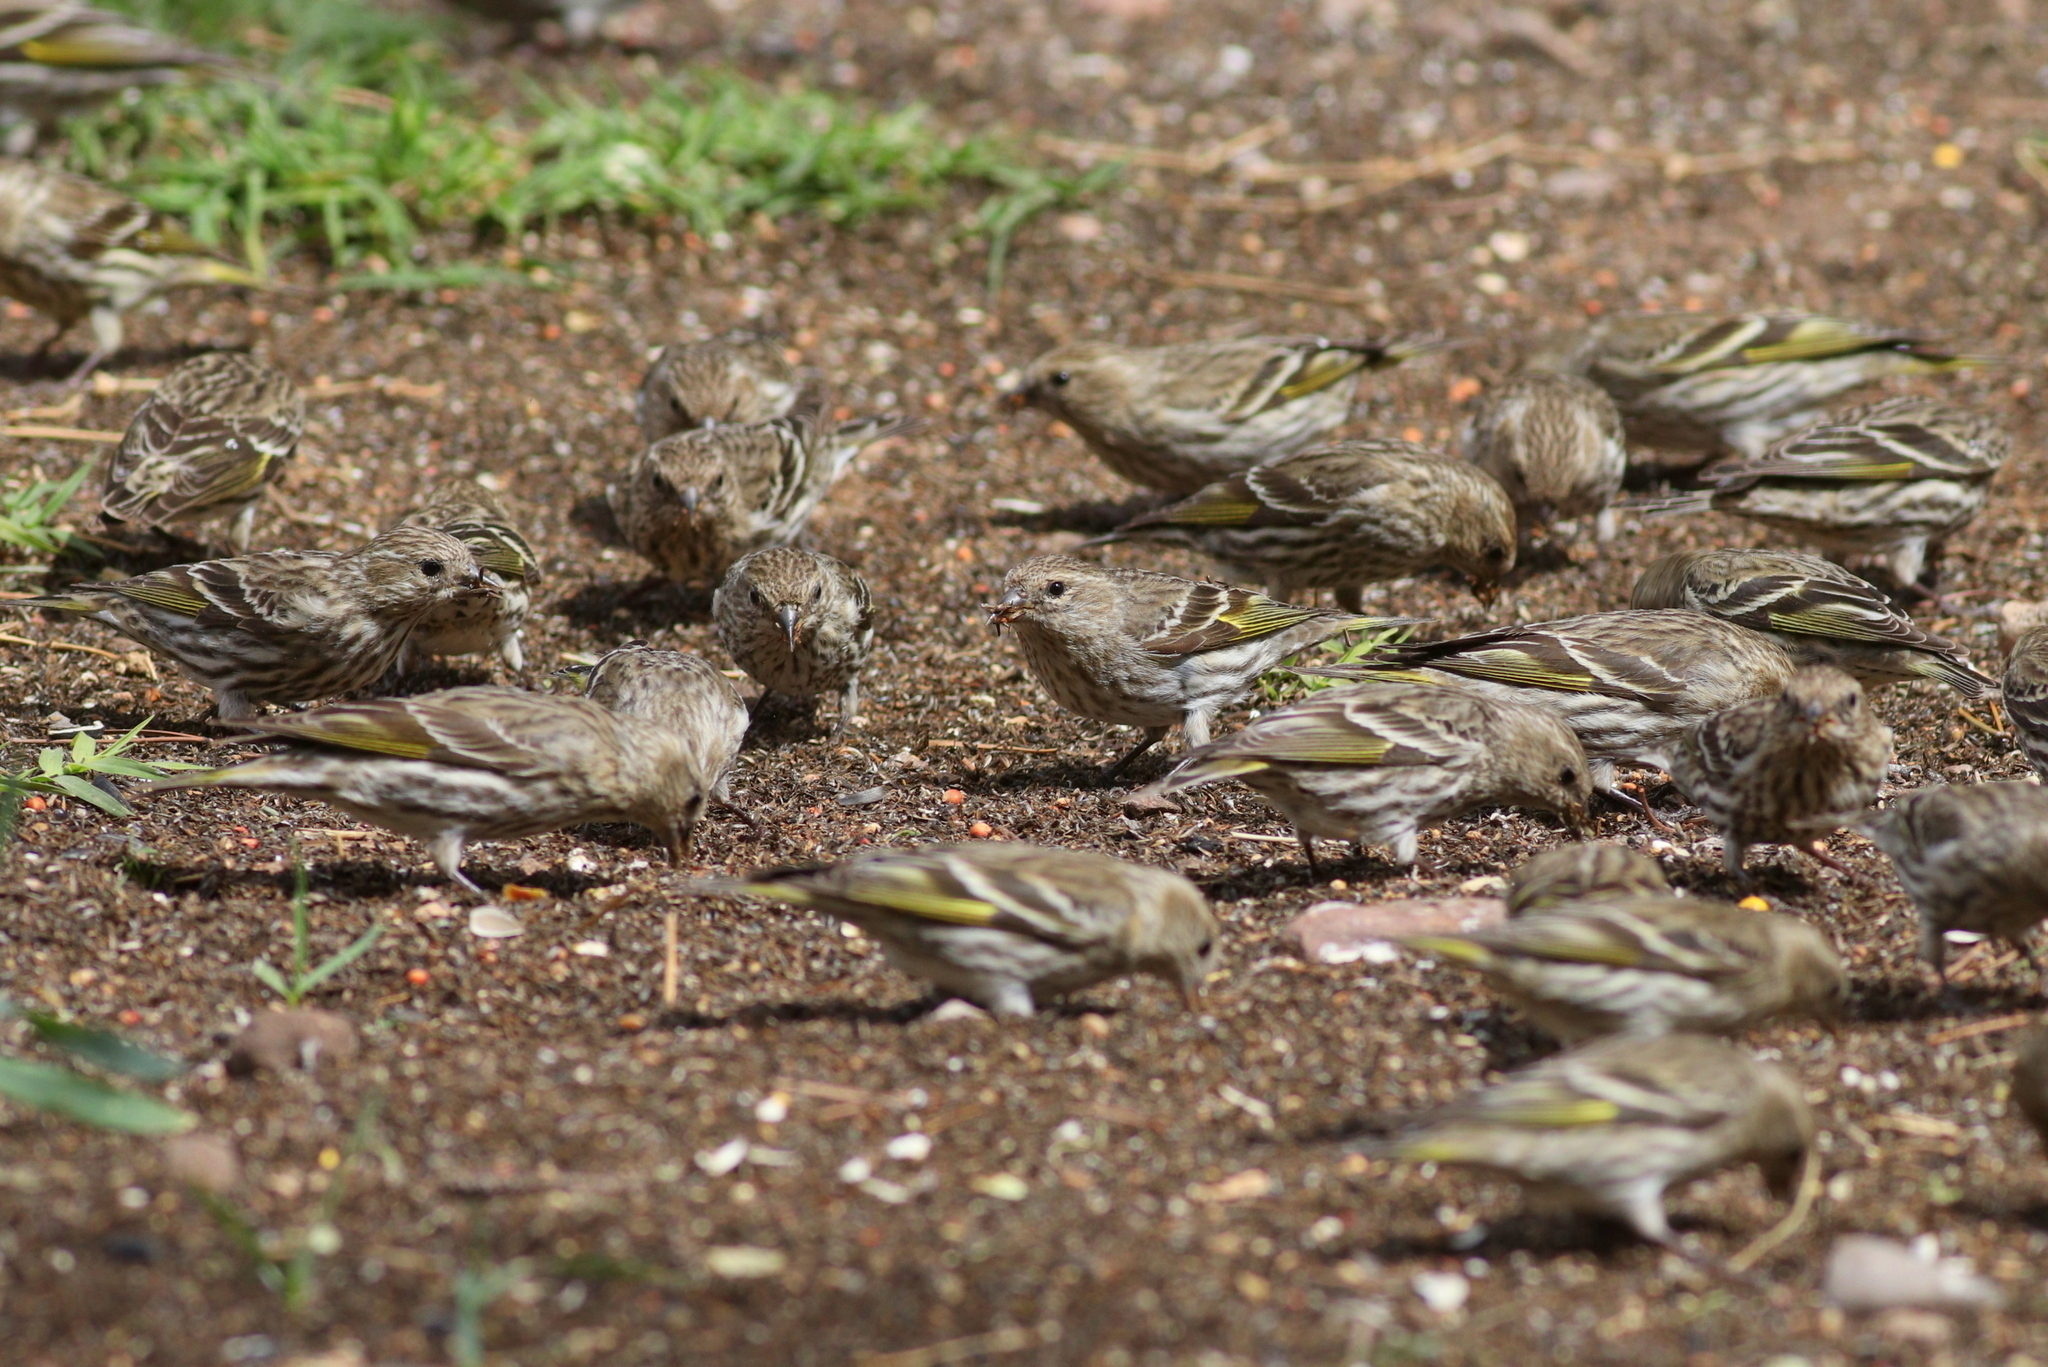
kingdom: Animalia
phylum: Chordata
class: Aves
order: Passeriformes
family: Fringillidae
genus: Spinus
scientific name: Spinus pinus
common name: Pine siskin
